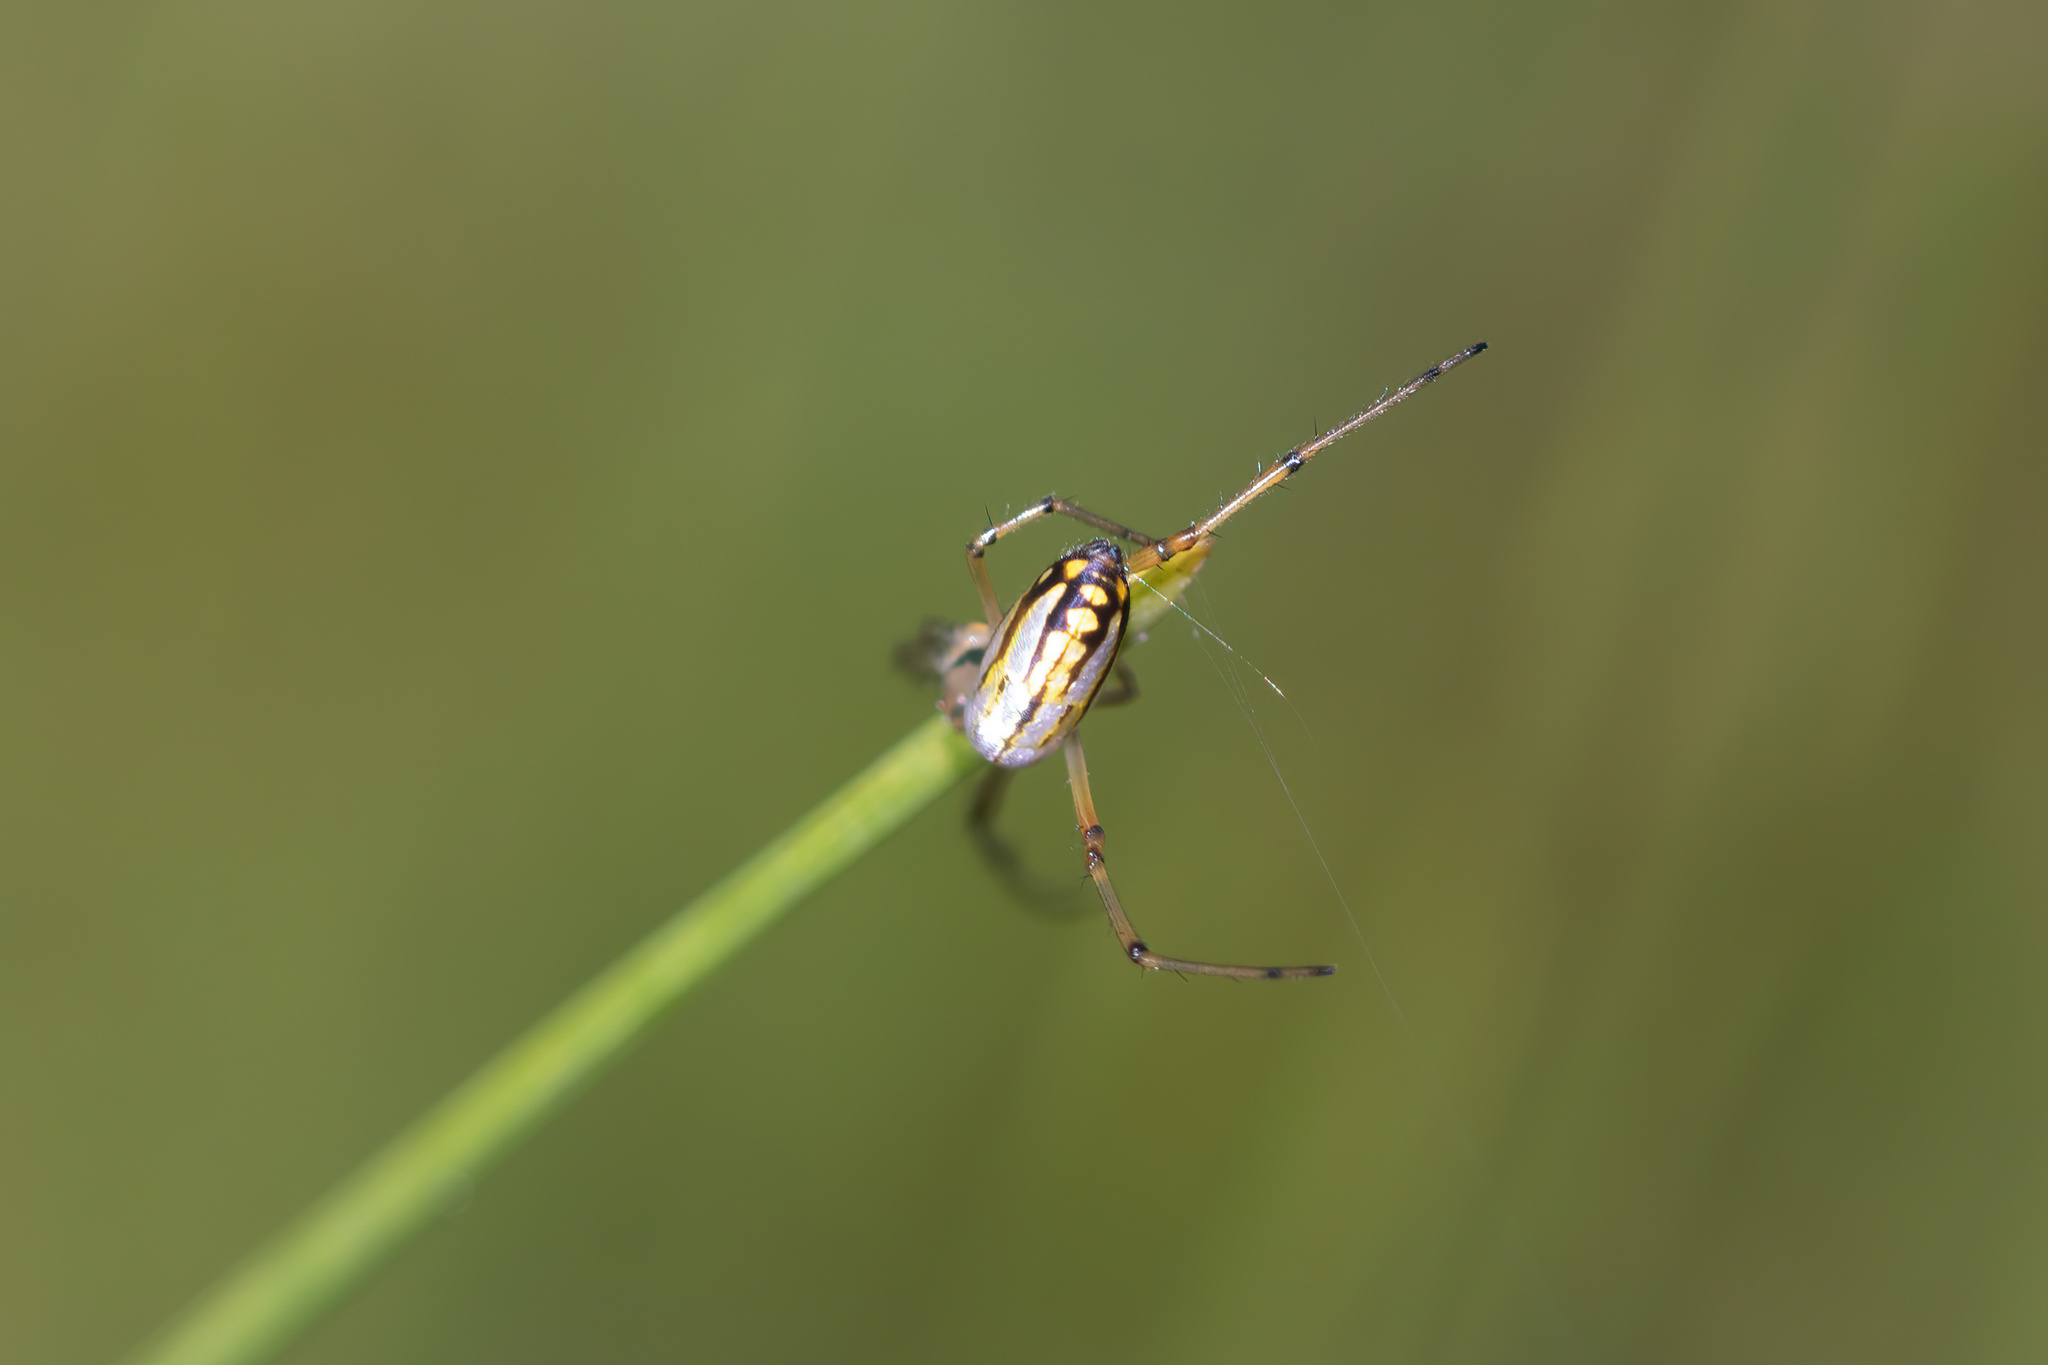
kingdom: Animalia
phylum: Arthropoda
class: Arachnida
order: Araneae
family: Tetragnathidae
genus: Leucauge
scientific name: Leucauge argyra
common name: Longjawed orb weavers
